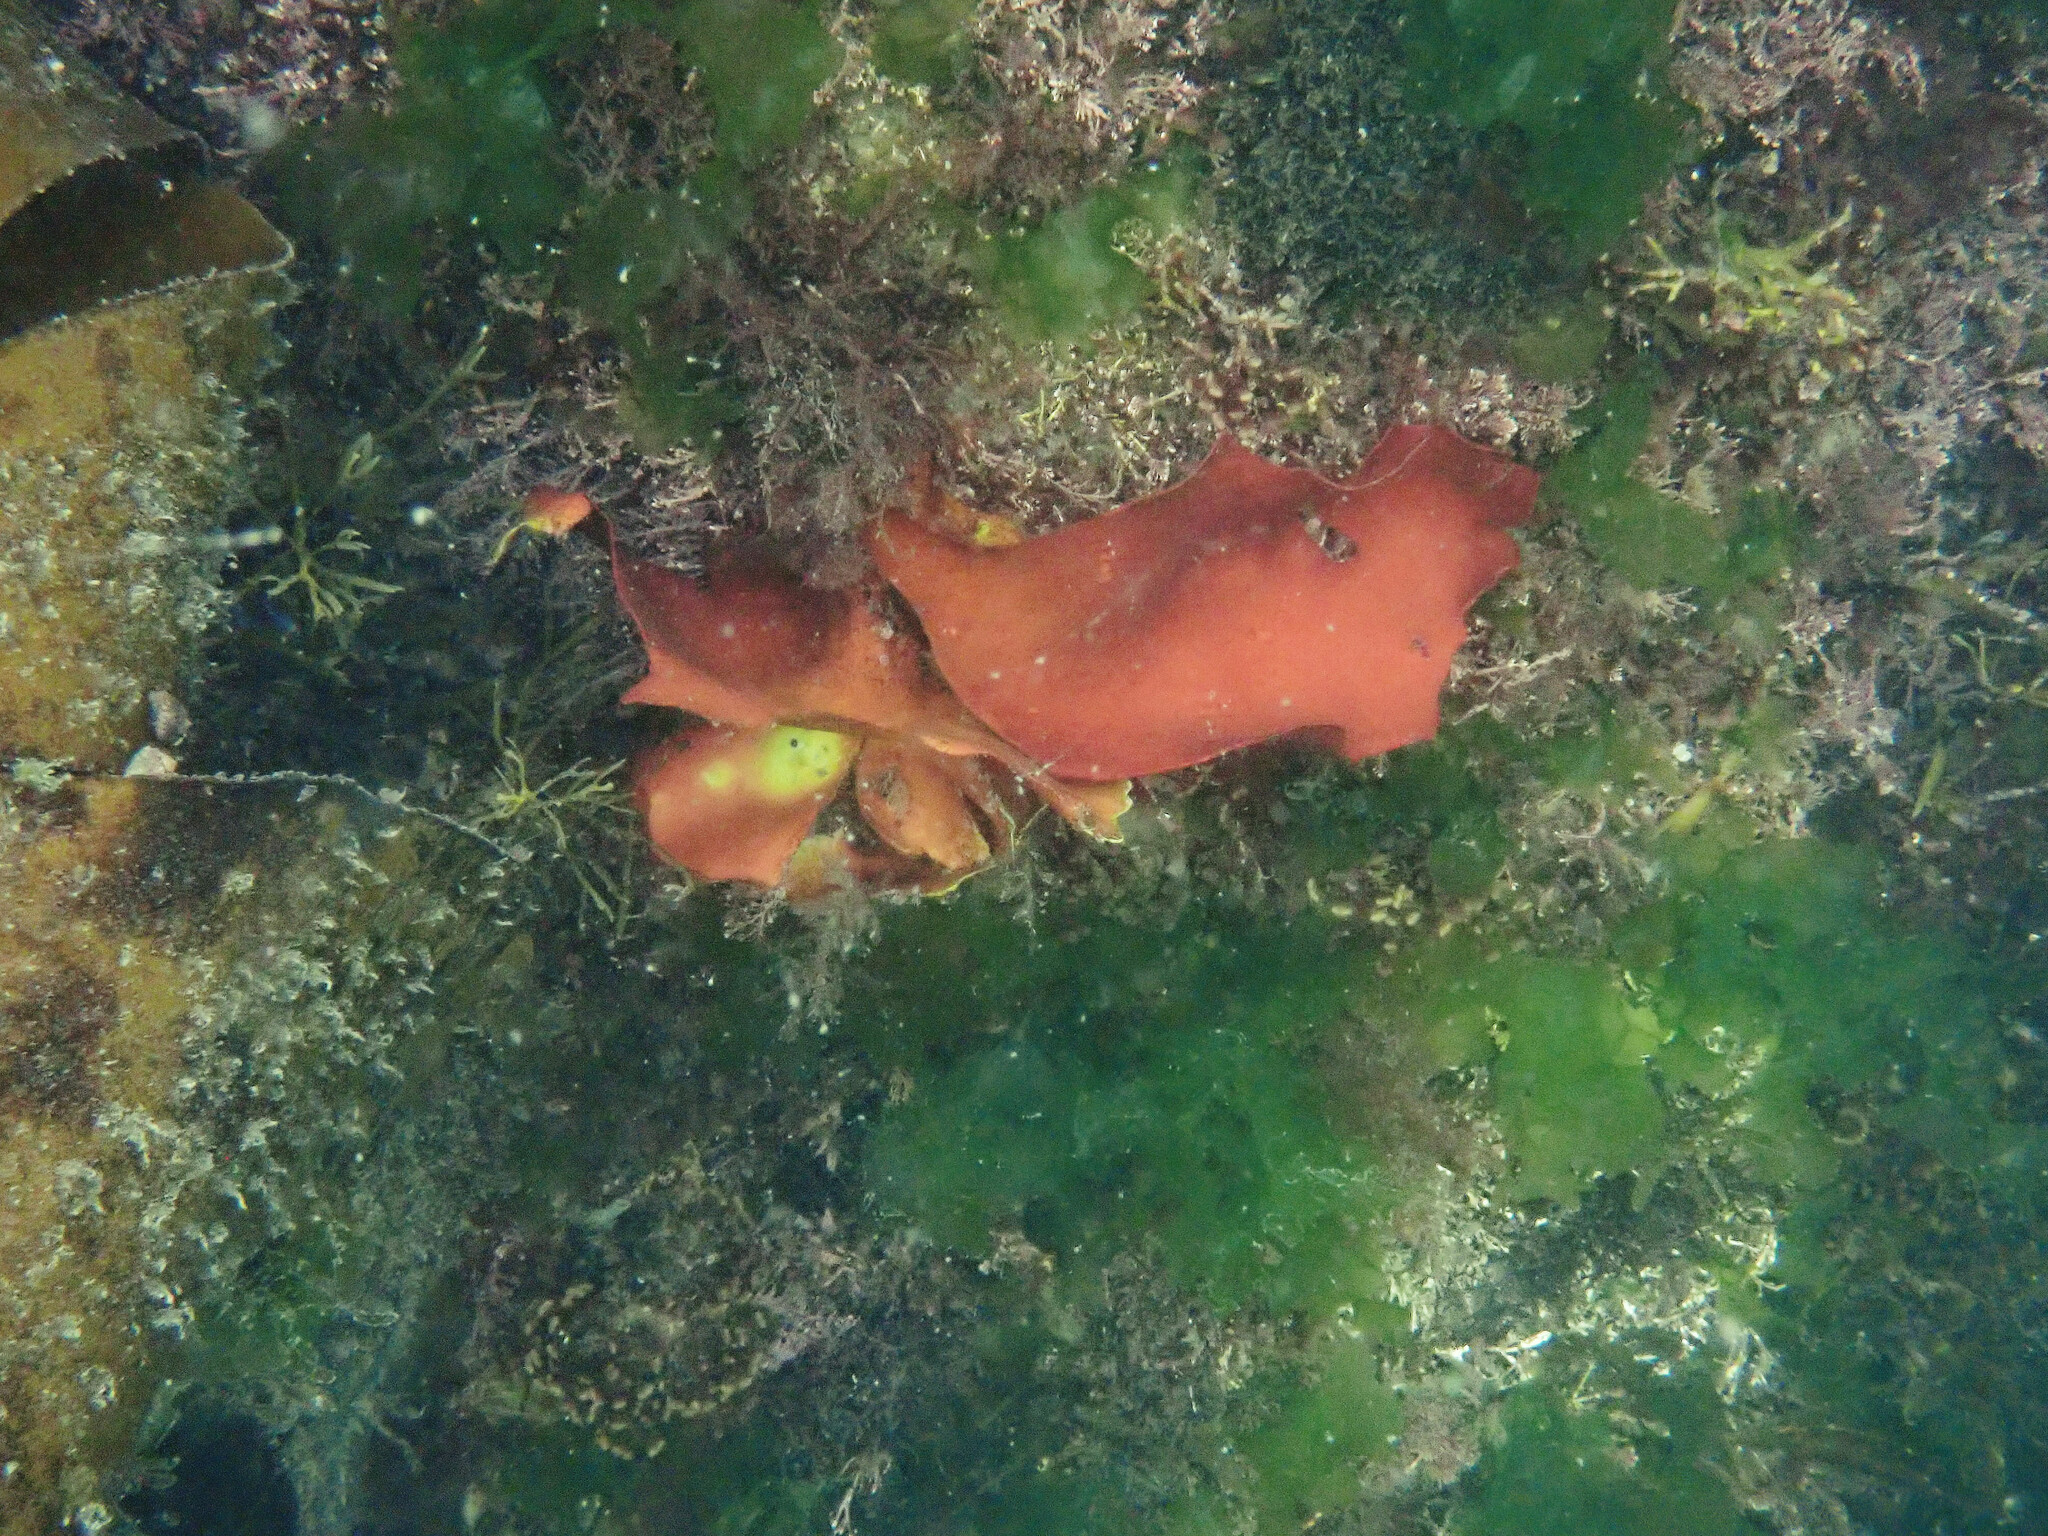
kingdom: Plantae
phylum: Rhodophyta
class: Florideophyceae
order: Gigartinales
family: Dumontiaceae
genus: Dilsea
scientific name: Dilsea carnosa
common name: Red rags
